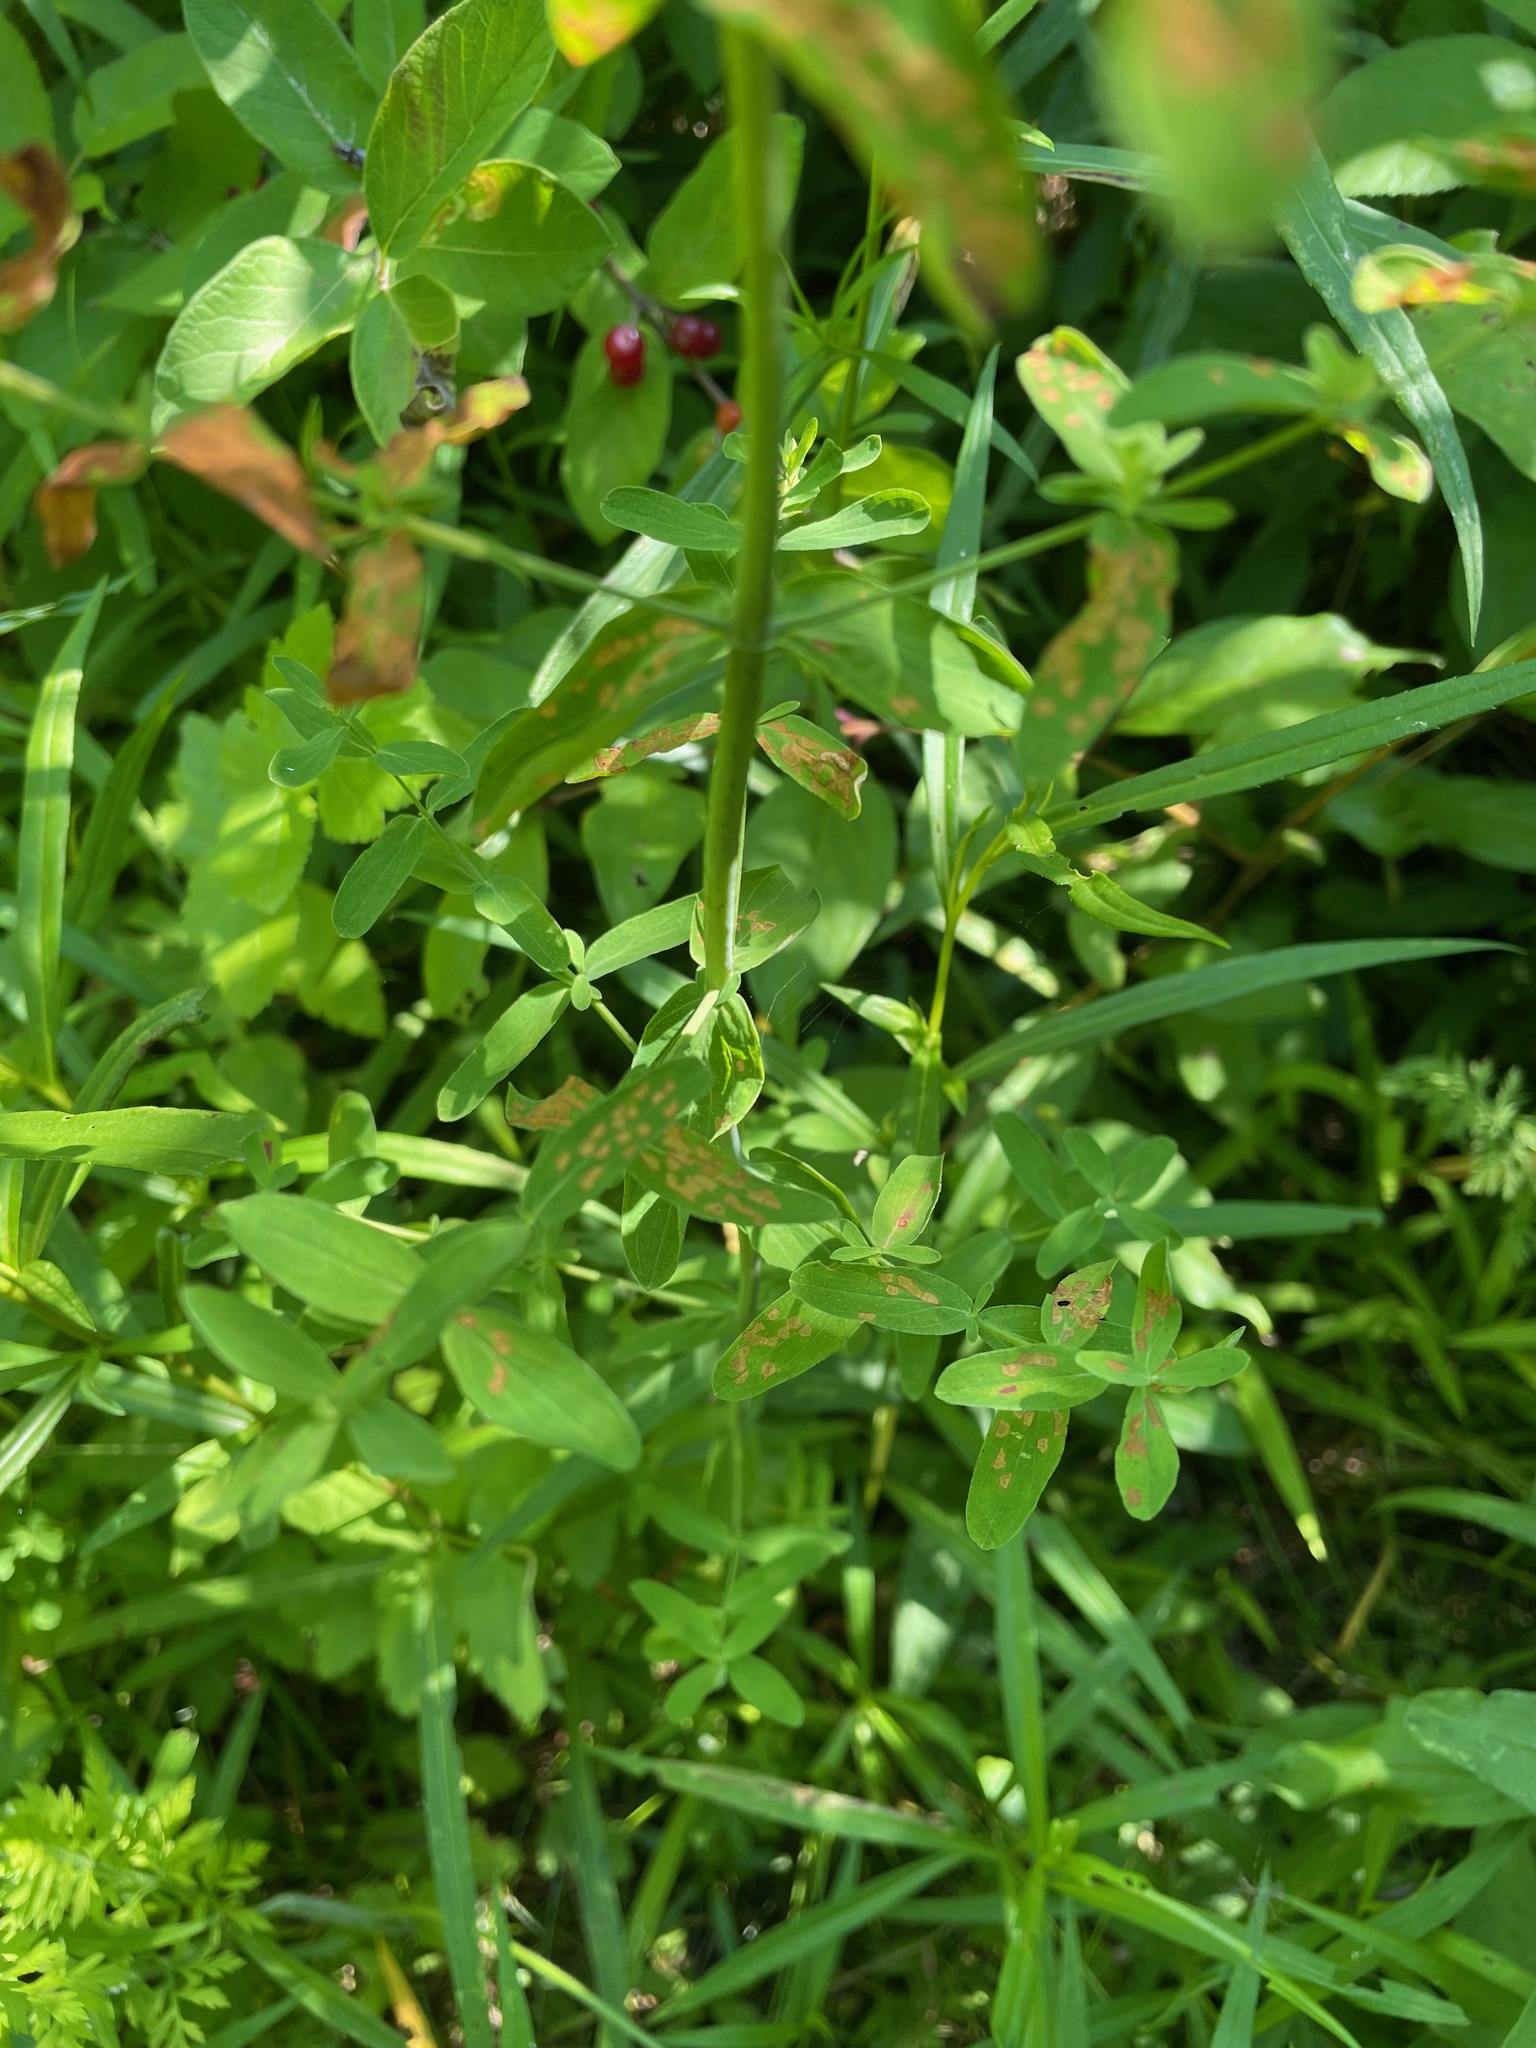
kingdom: Plantae
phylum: Tracheophyta
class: Magnoliopsida
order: Malpighiales
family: Hypericaceae
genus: Hypericum
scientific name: Hypericum perforatum
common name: Common st. johnswort
